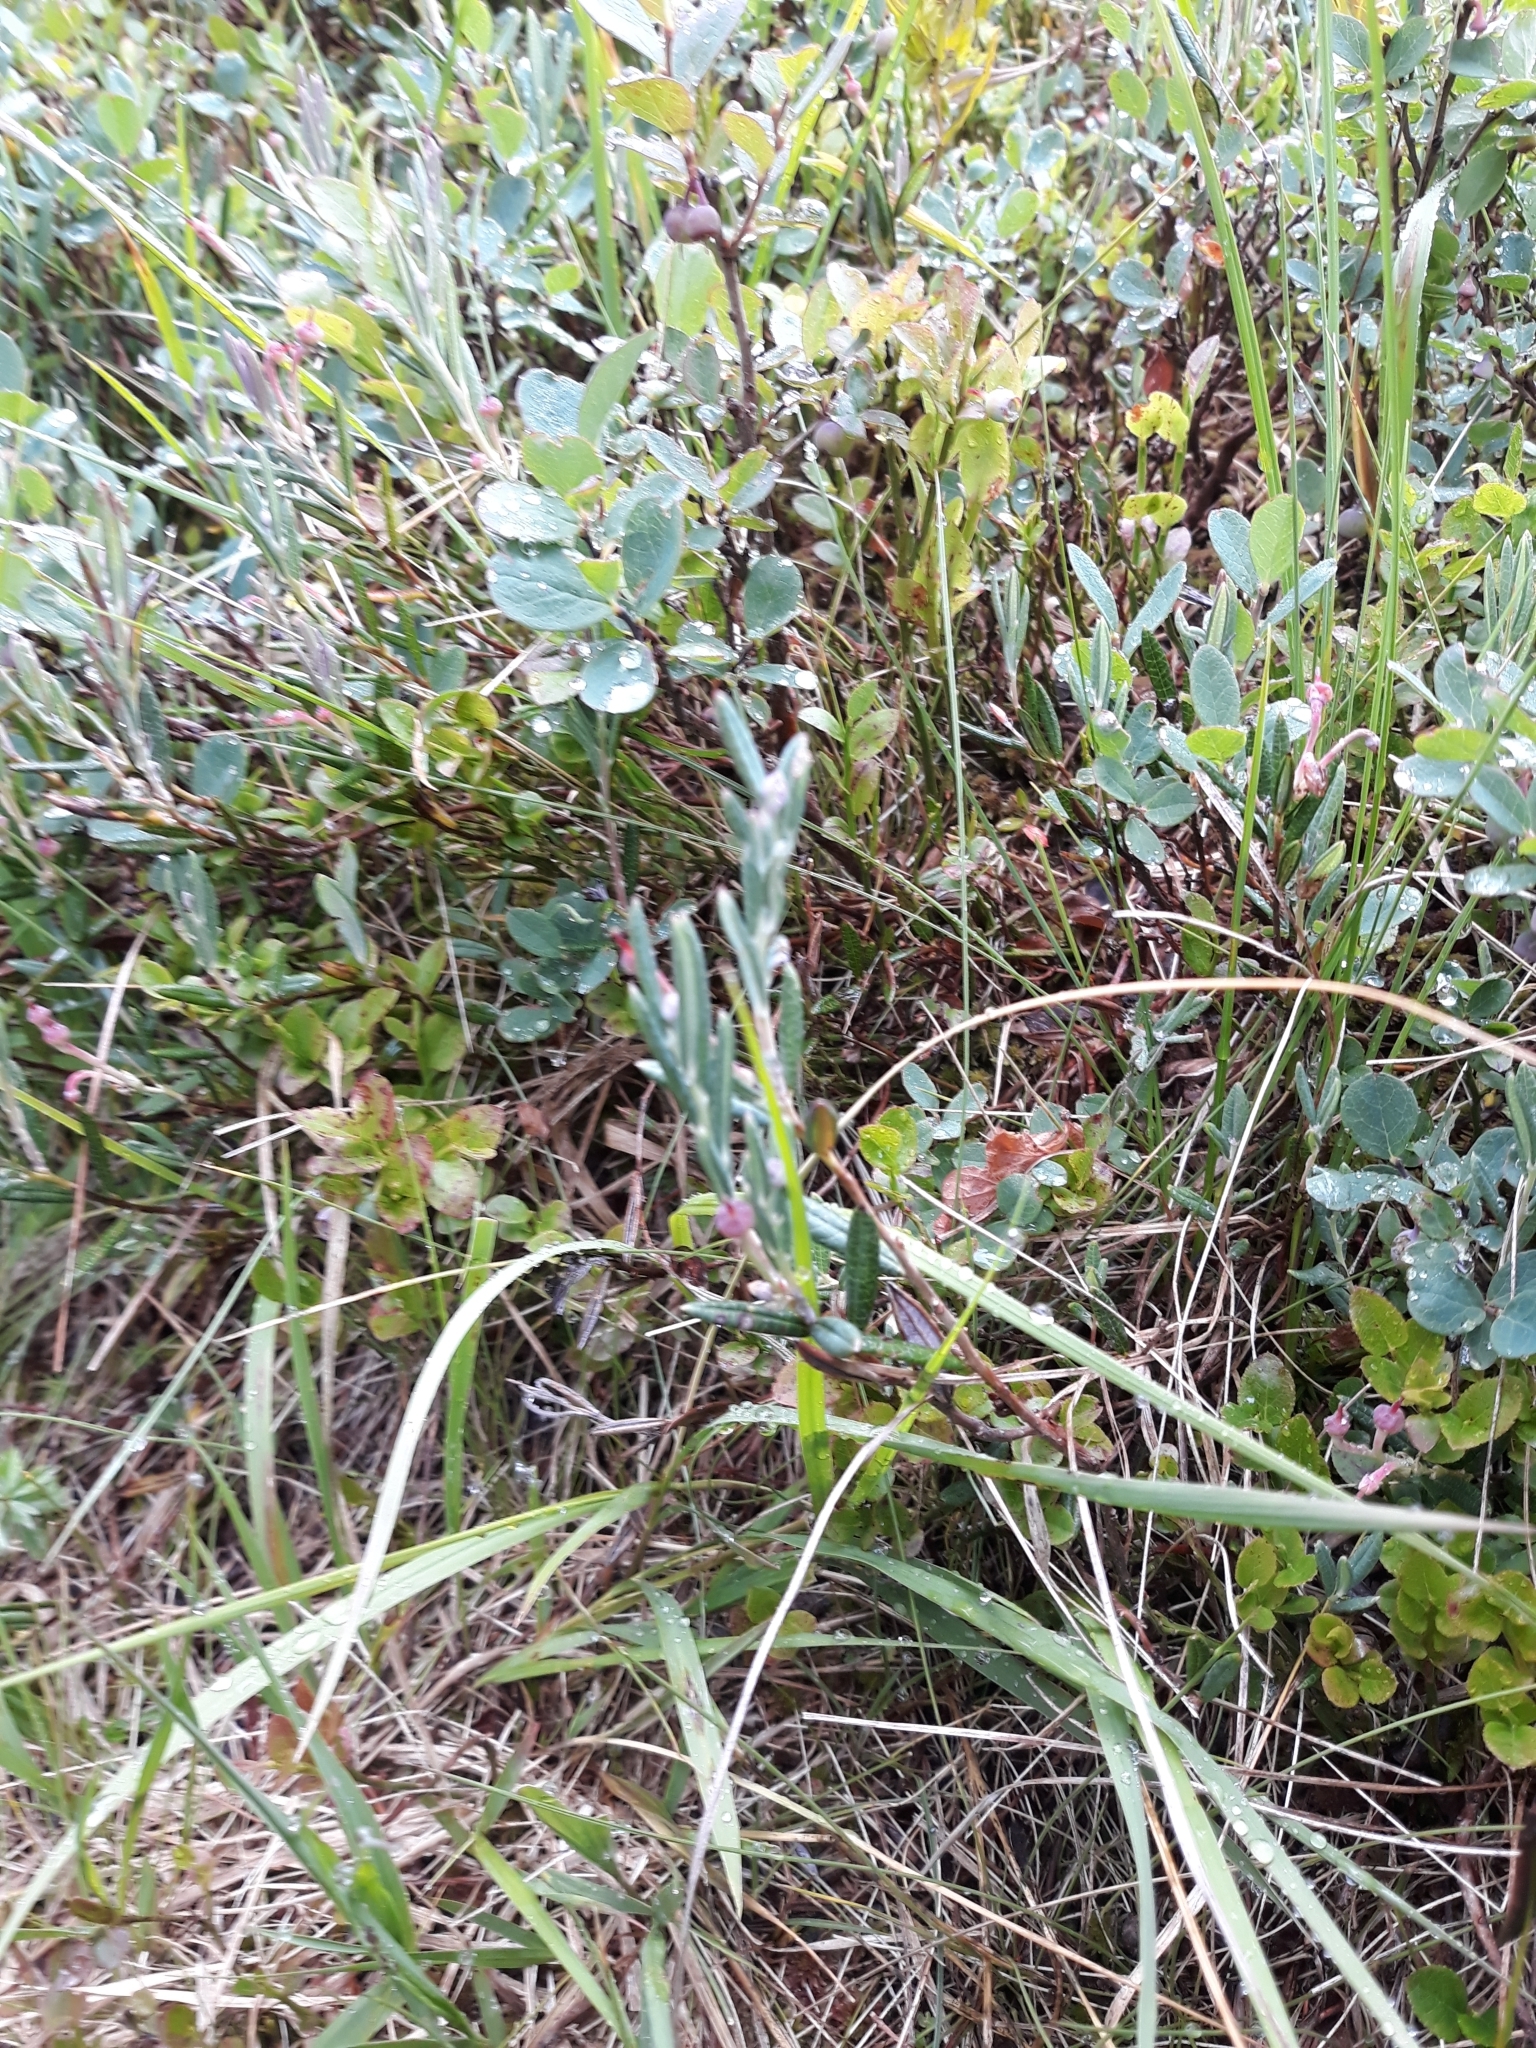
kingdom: Plantae
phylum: Tracheophyta
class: Magnoliopsida
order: Ericales
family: Ericaceae
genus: Andromeda
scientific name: Andromeda polifolia
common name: Bog-rosemary
